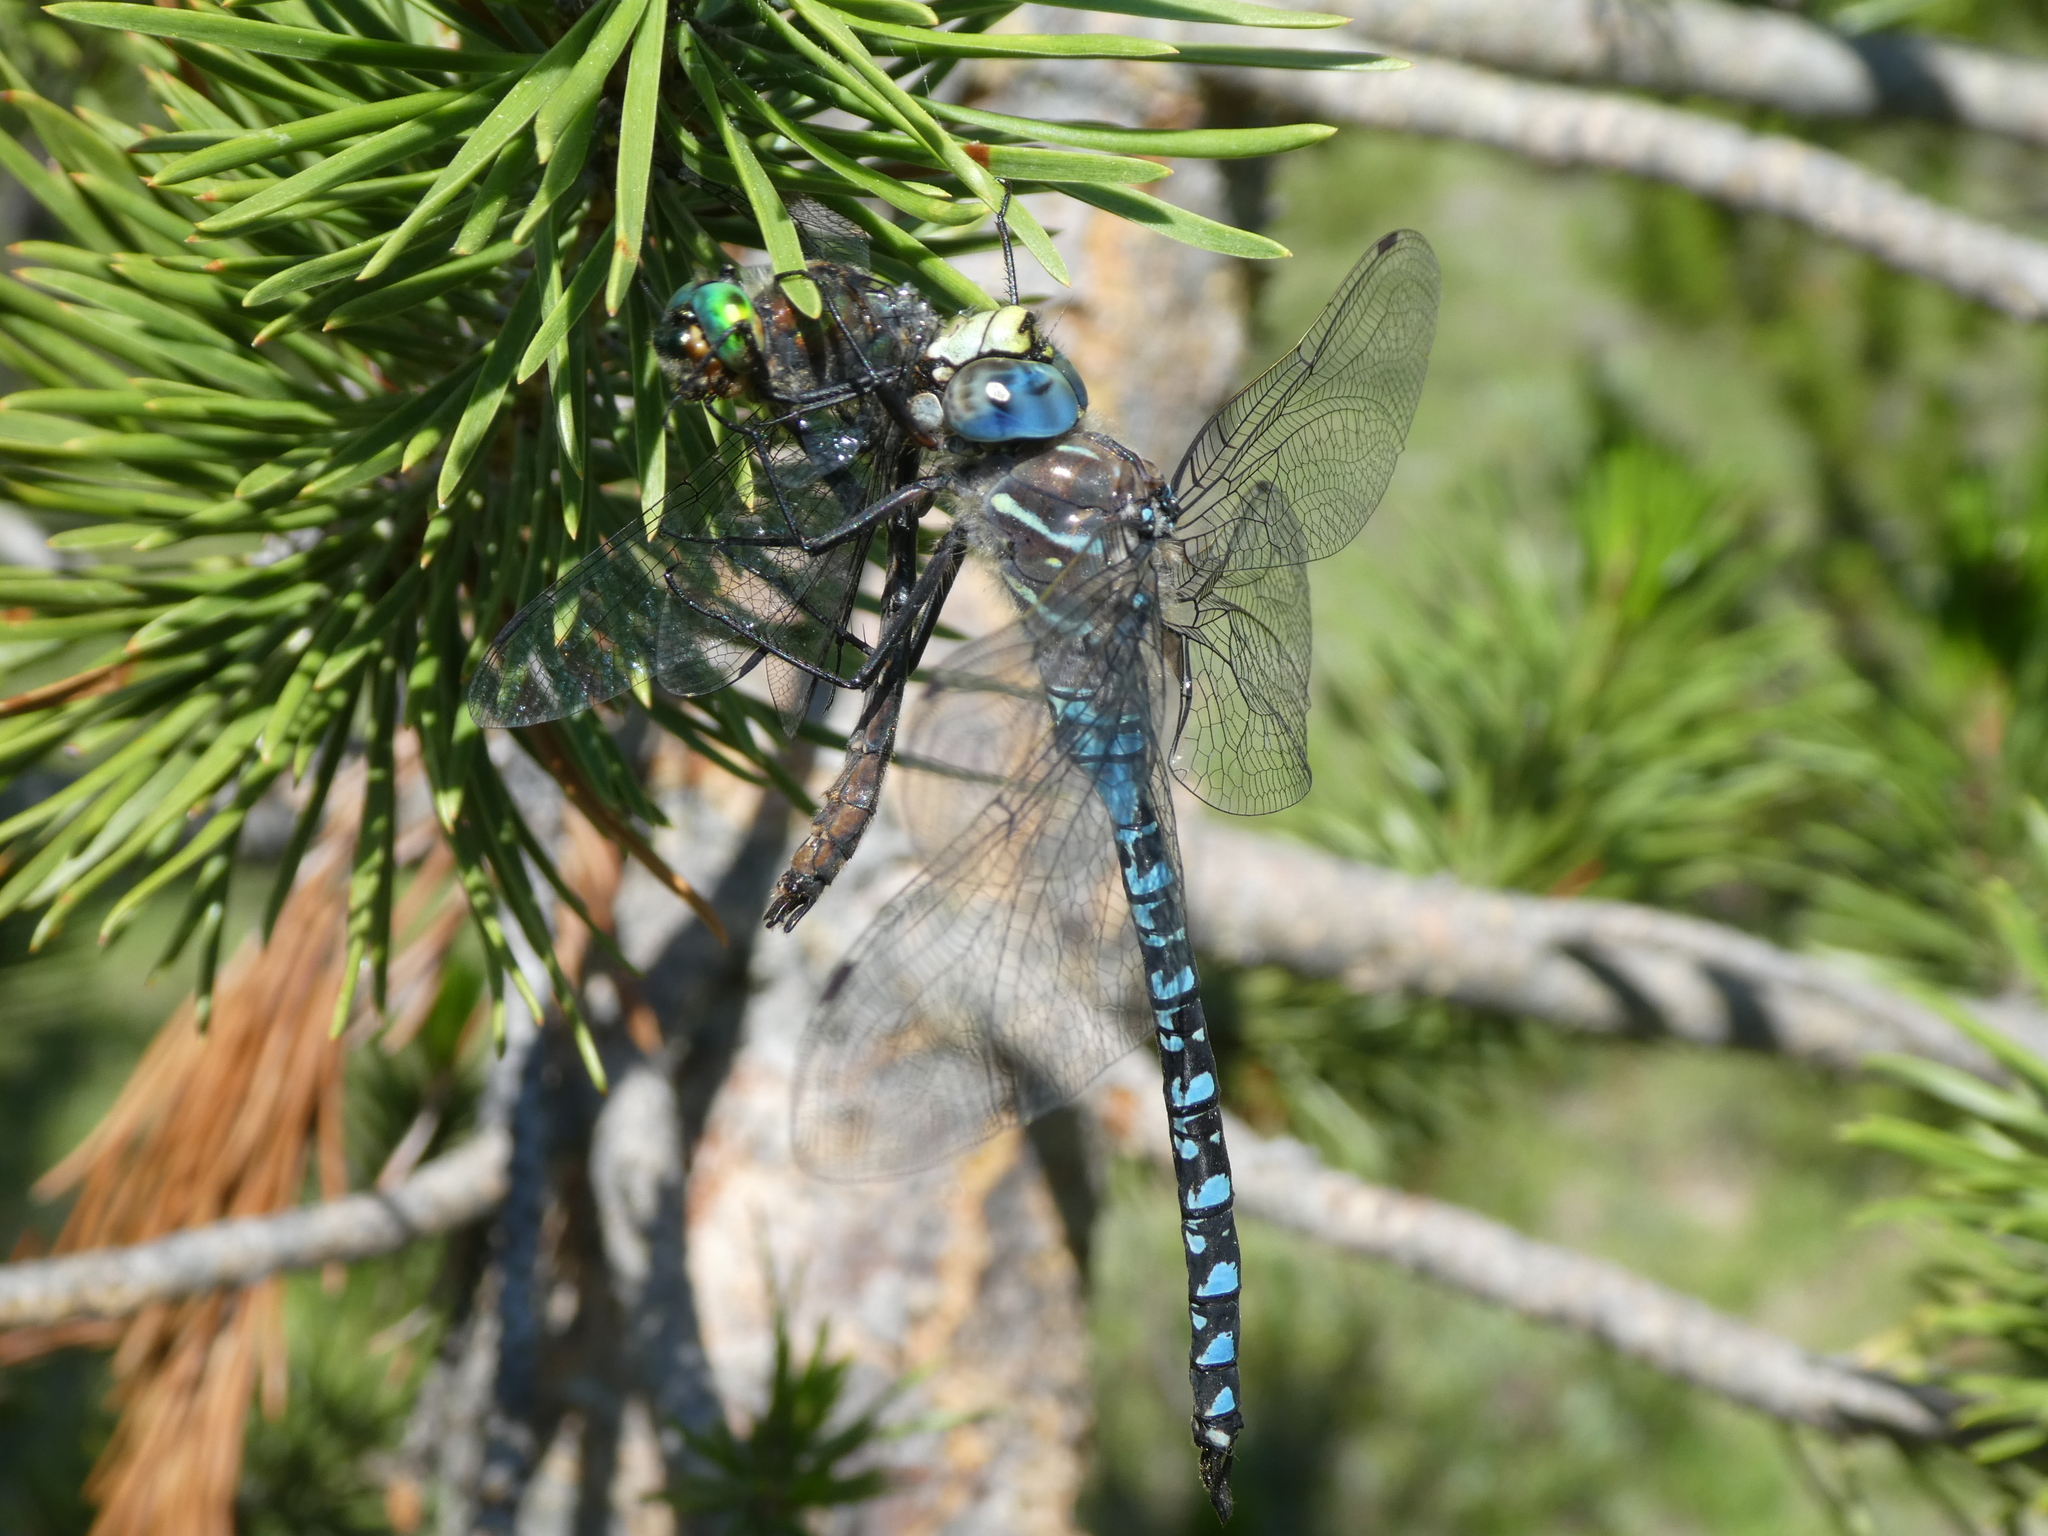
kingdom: Animalia
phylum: Arthropoda
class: Insecta
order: Odonata
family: Aeshnidae
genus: Aeshna
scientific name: Aeshna interrupta
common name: Variable darner
